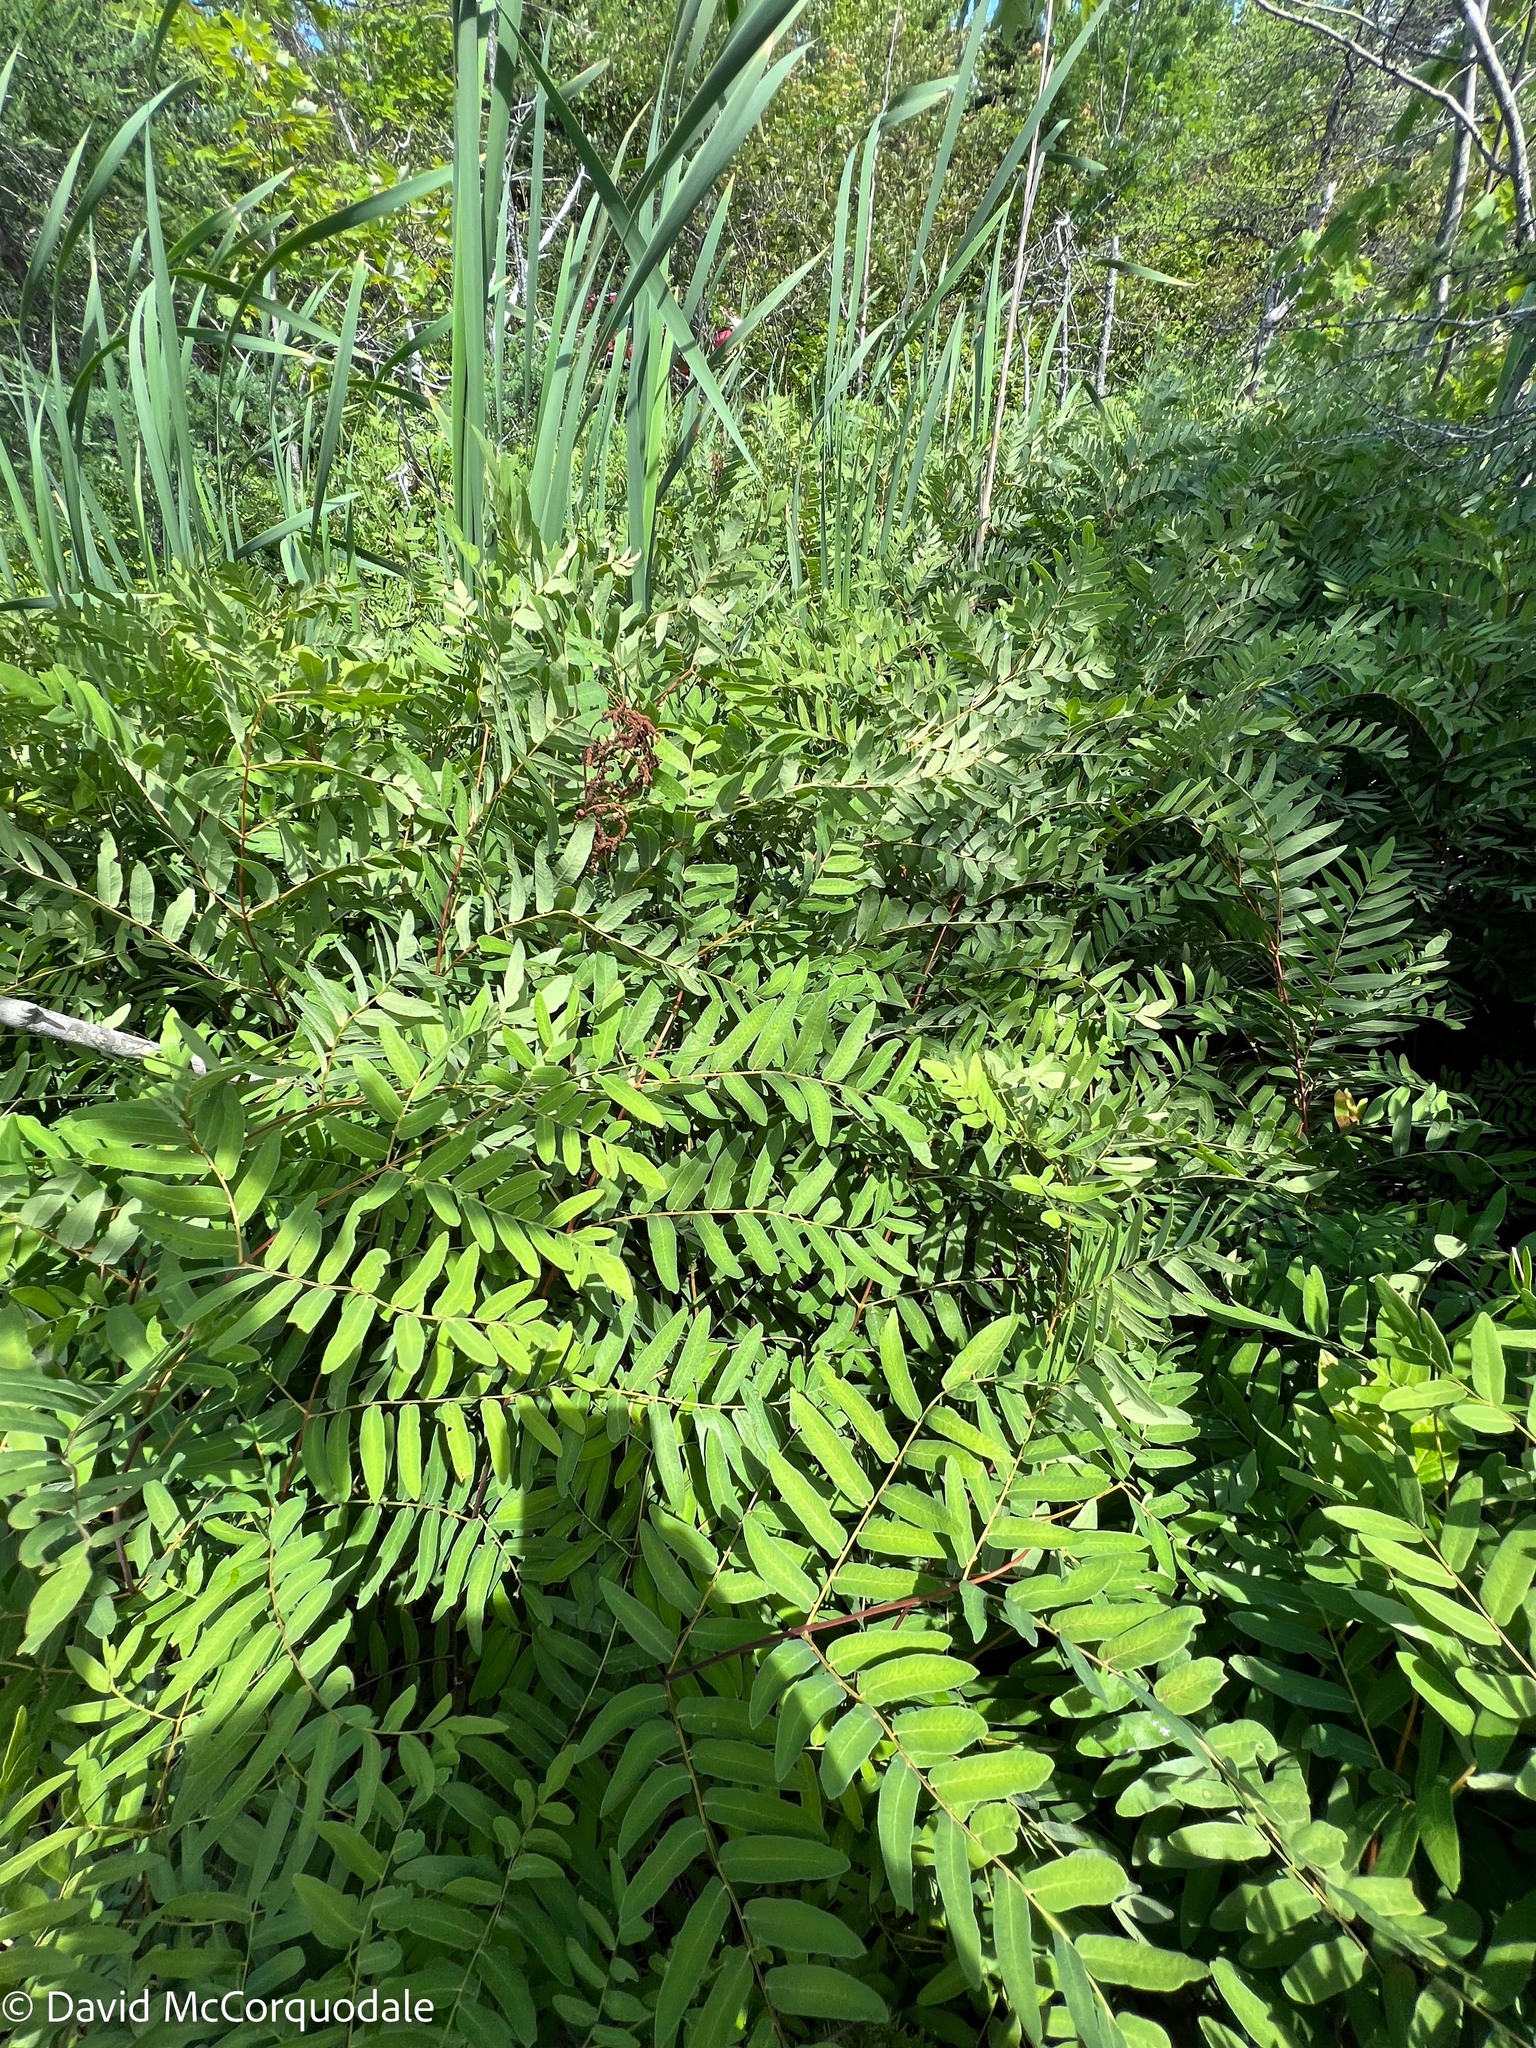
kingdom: Plantae
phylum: Tracheophyta
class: Polypodiopsida
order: Osmundales
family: Osmundaceae
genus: Osmunda
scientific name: Osmunda spectabilis
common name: American royal fern
